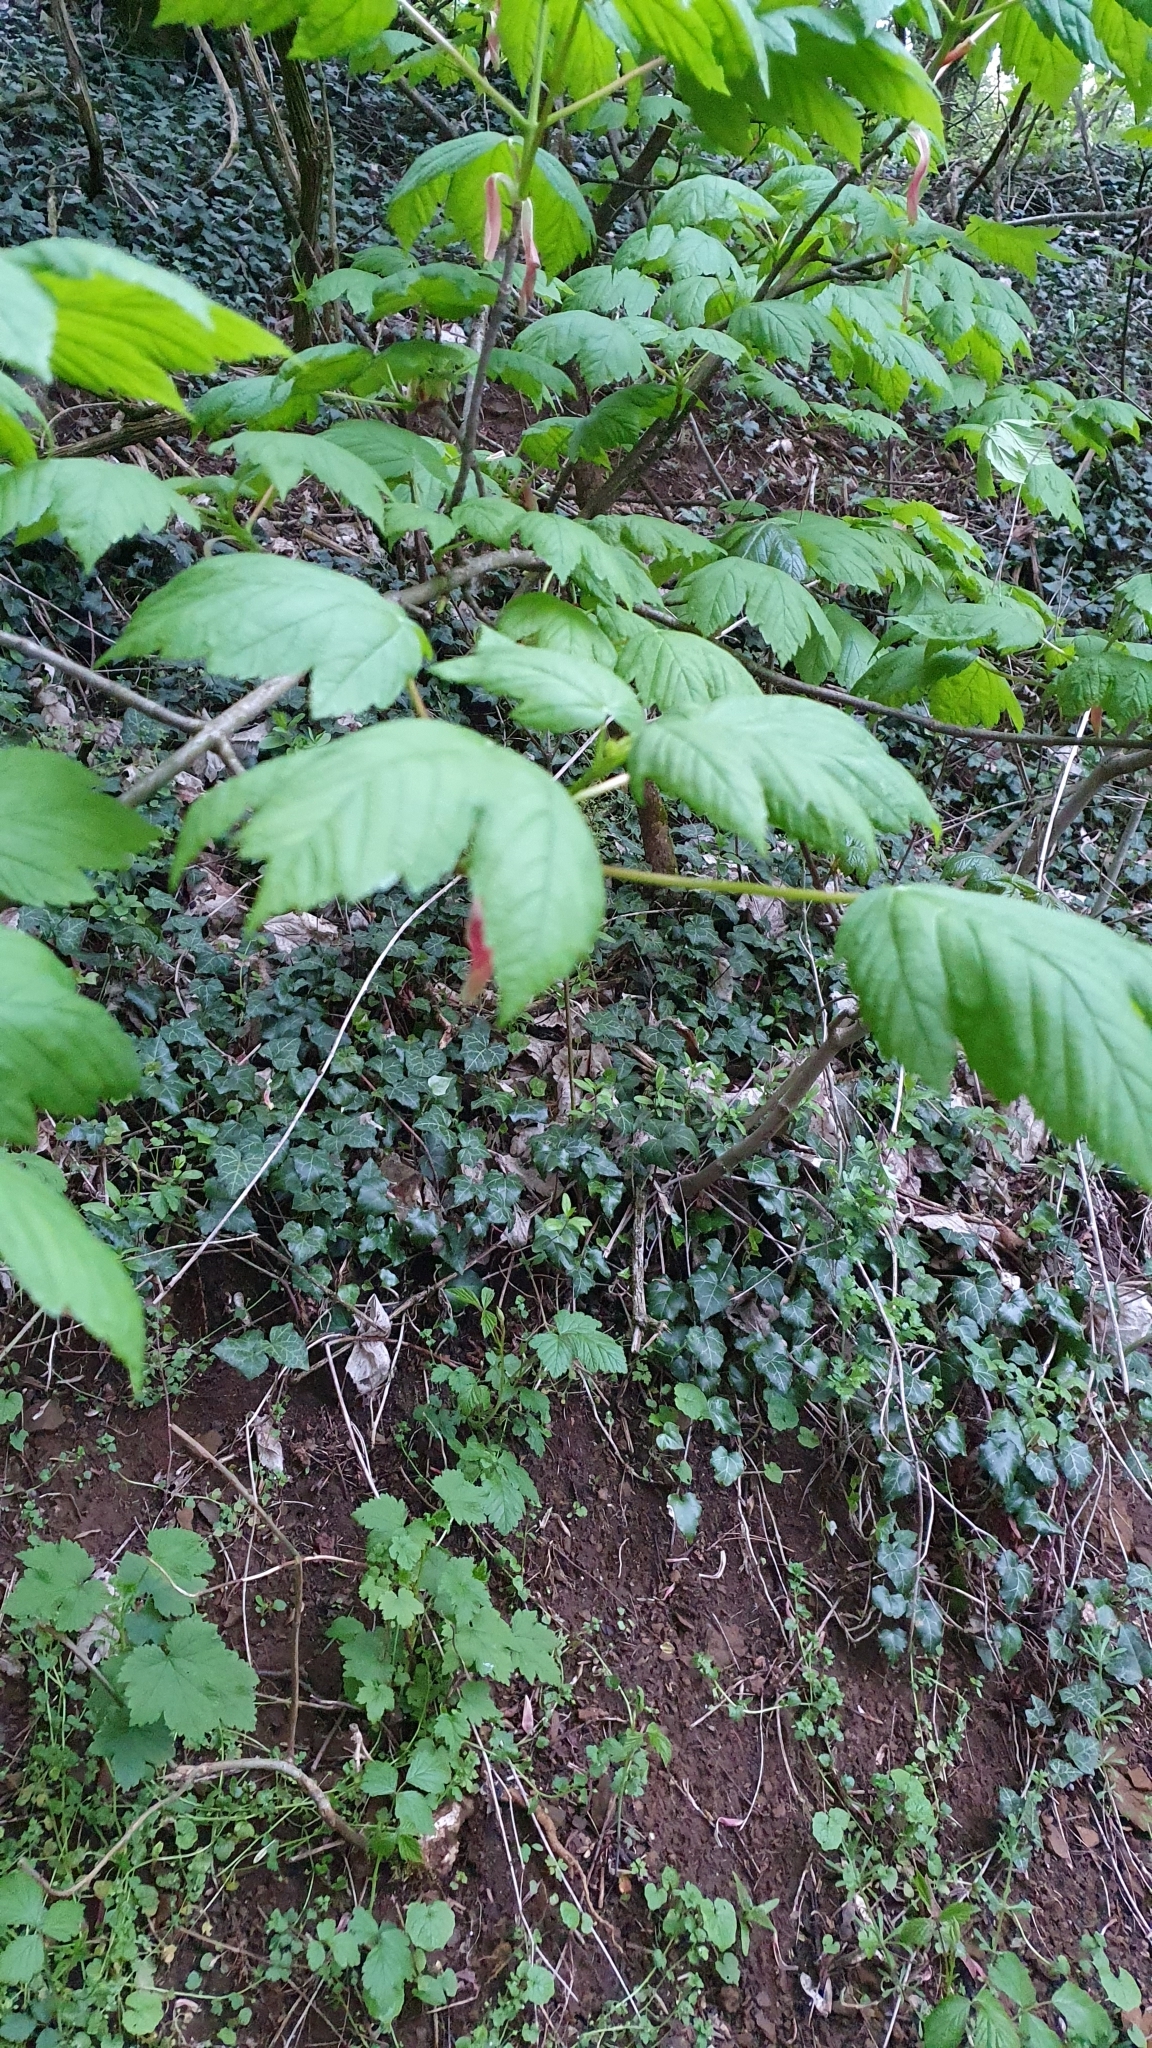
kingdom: Plantae
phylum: Tracheophyta
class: Magnoliopsida
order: Sapindales
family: Sapindaceae
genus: Acer
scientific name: Acer pseudoplatanus
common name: Sycamore
